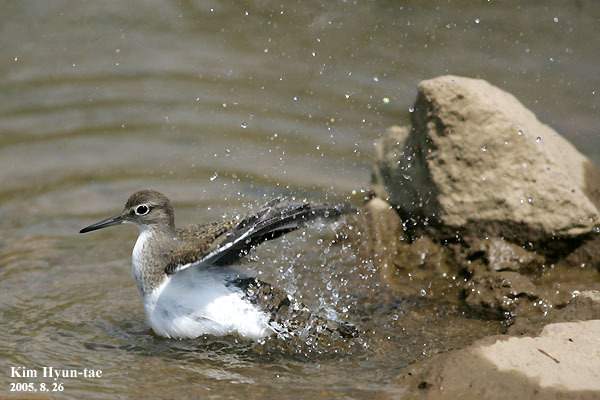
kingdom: Animalia
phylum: Chordata
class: Aves
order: Charadriiformes
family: Scolopacidae
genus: Actitis
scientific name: Actitis hypoleucos
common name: Common sandpiper
